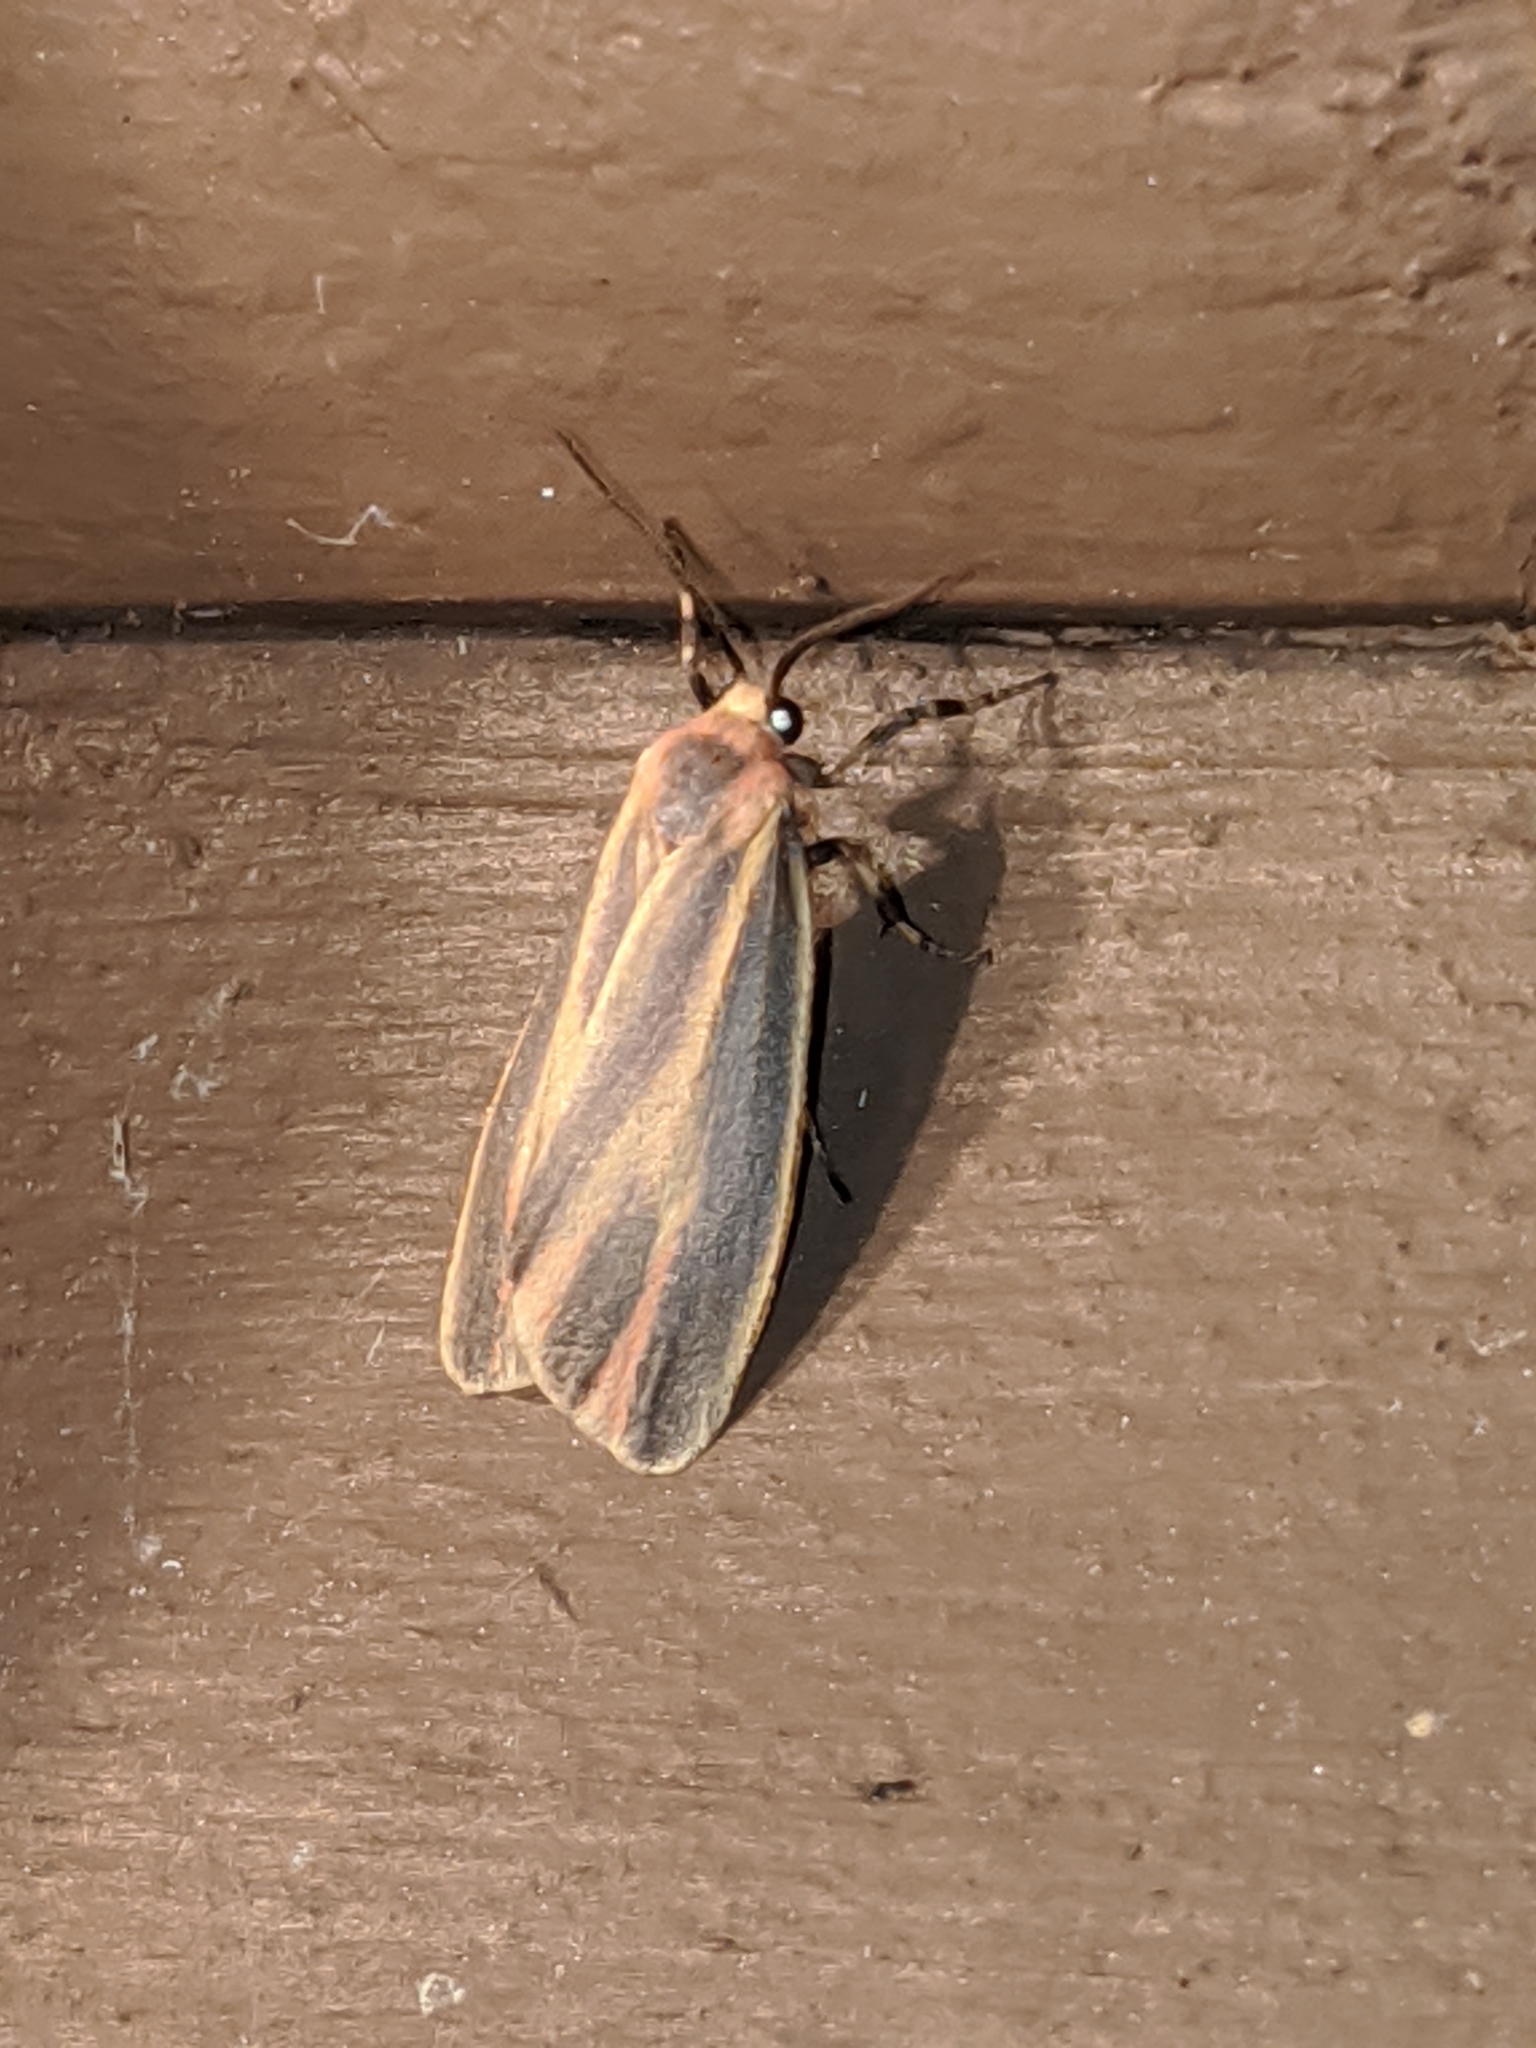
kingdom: Animalia
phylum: Arthropoda
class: Insecta
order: Lepidoptera
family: Erebidae
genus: Hypoprepia
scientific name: Hypoprepia fucosa
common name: Painted lichen moth
